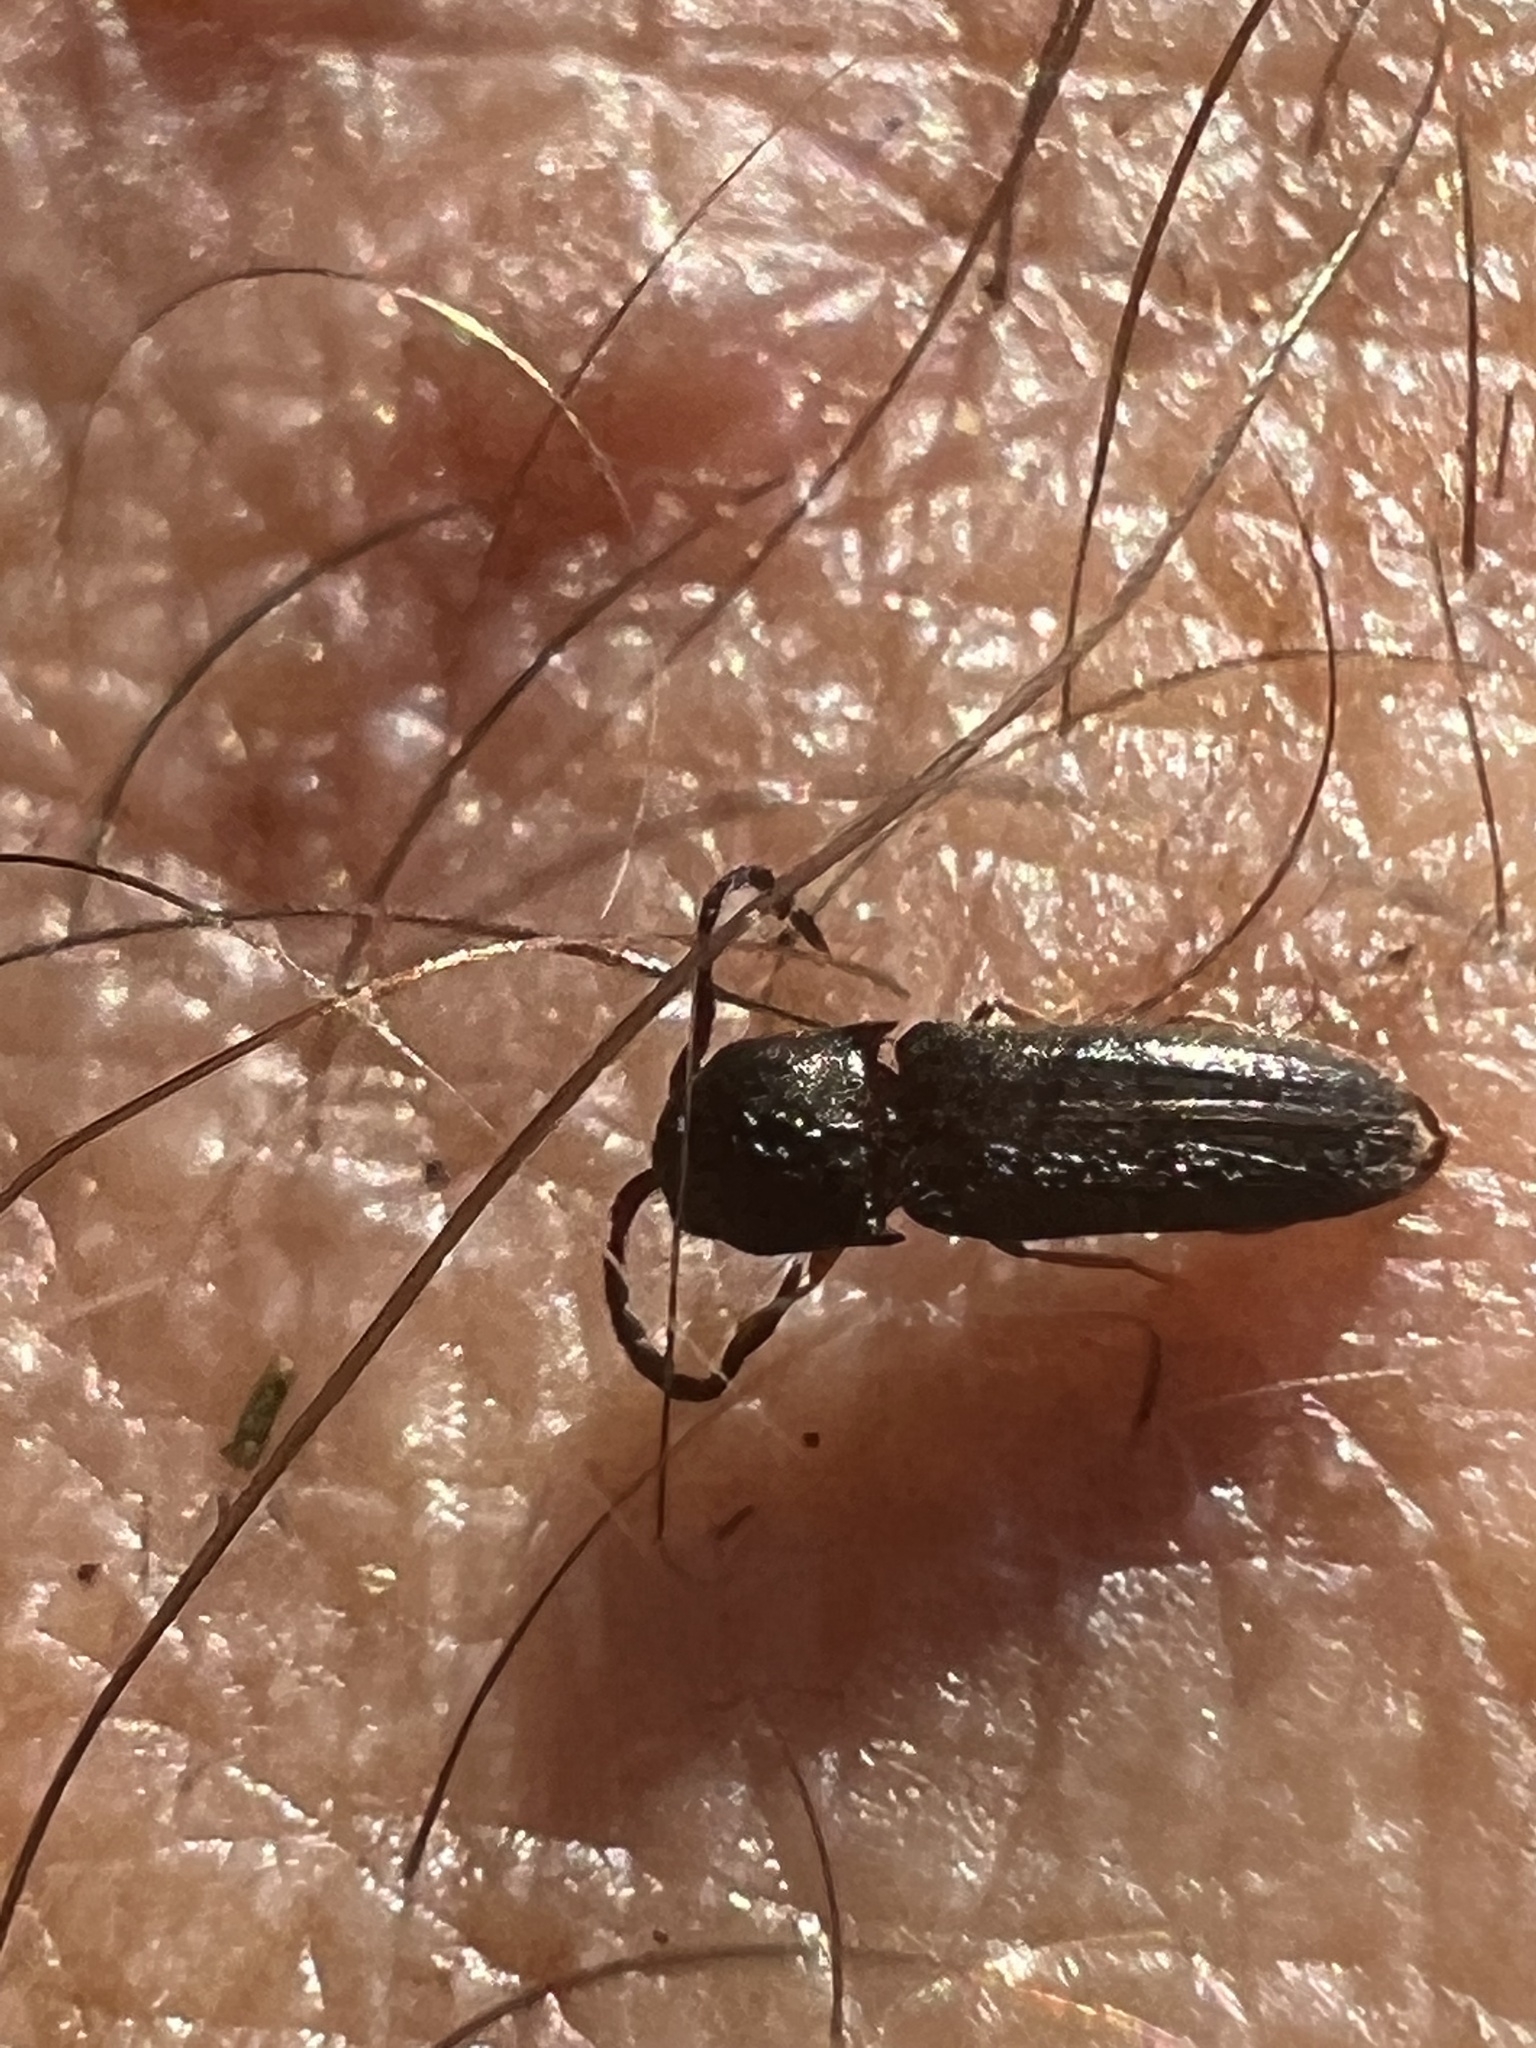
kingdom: Animalia
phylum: Arthropoda
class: Insecta
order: Coleoptera
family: Eucnemidae
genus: Microrhagus
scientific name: Microrhagus triangularis
